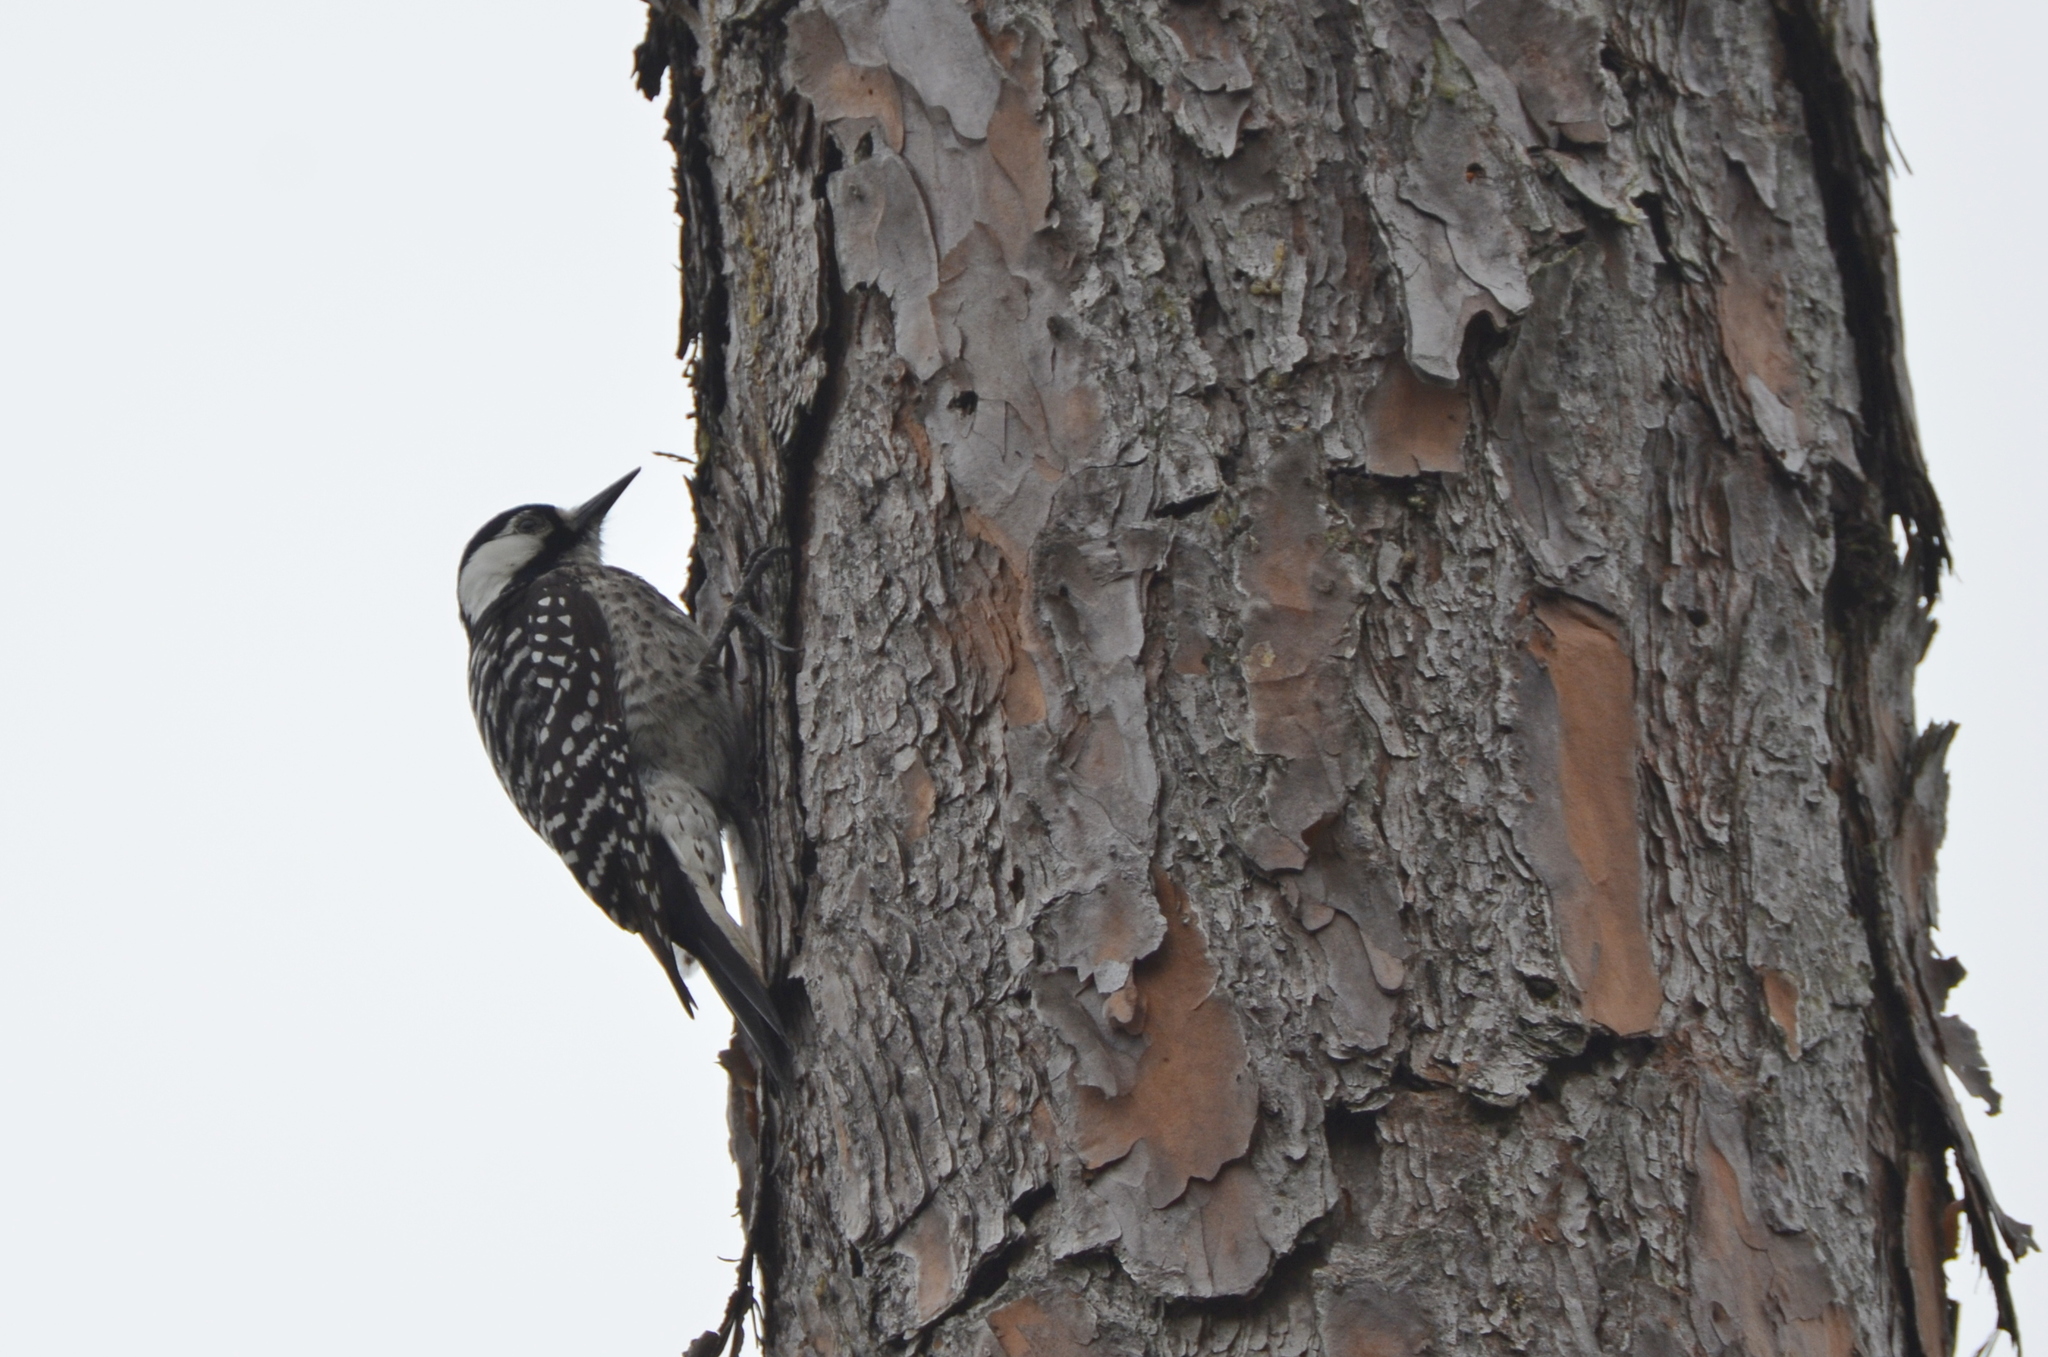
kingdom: Animalia
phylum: Chordata
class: Aves
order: Piciformes
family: Picidae
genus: Leuconotopicus
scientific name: Leuconotopicus borealis
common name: Red-cockaded woodpecker
